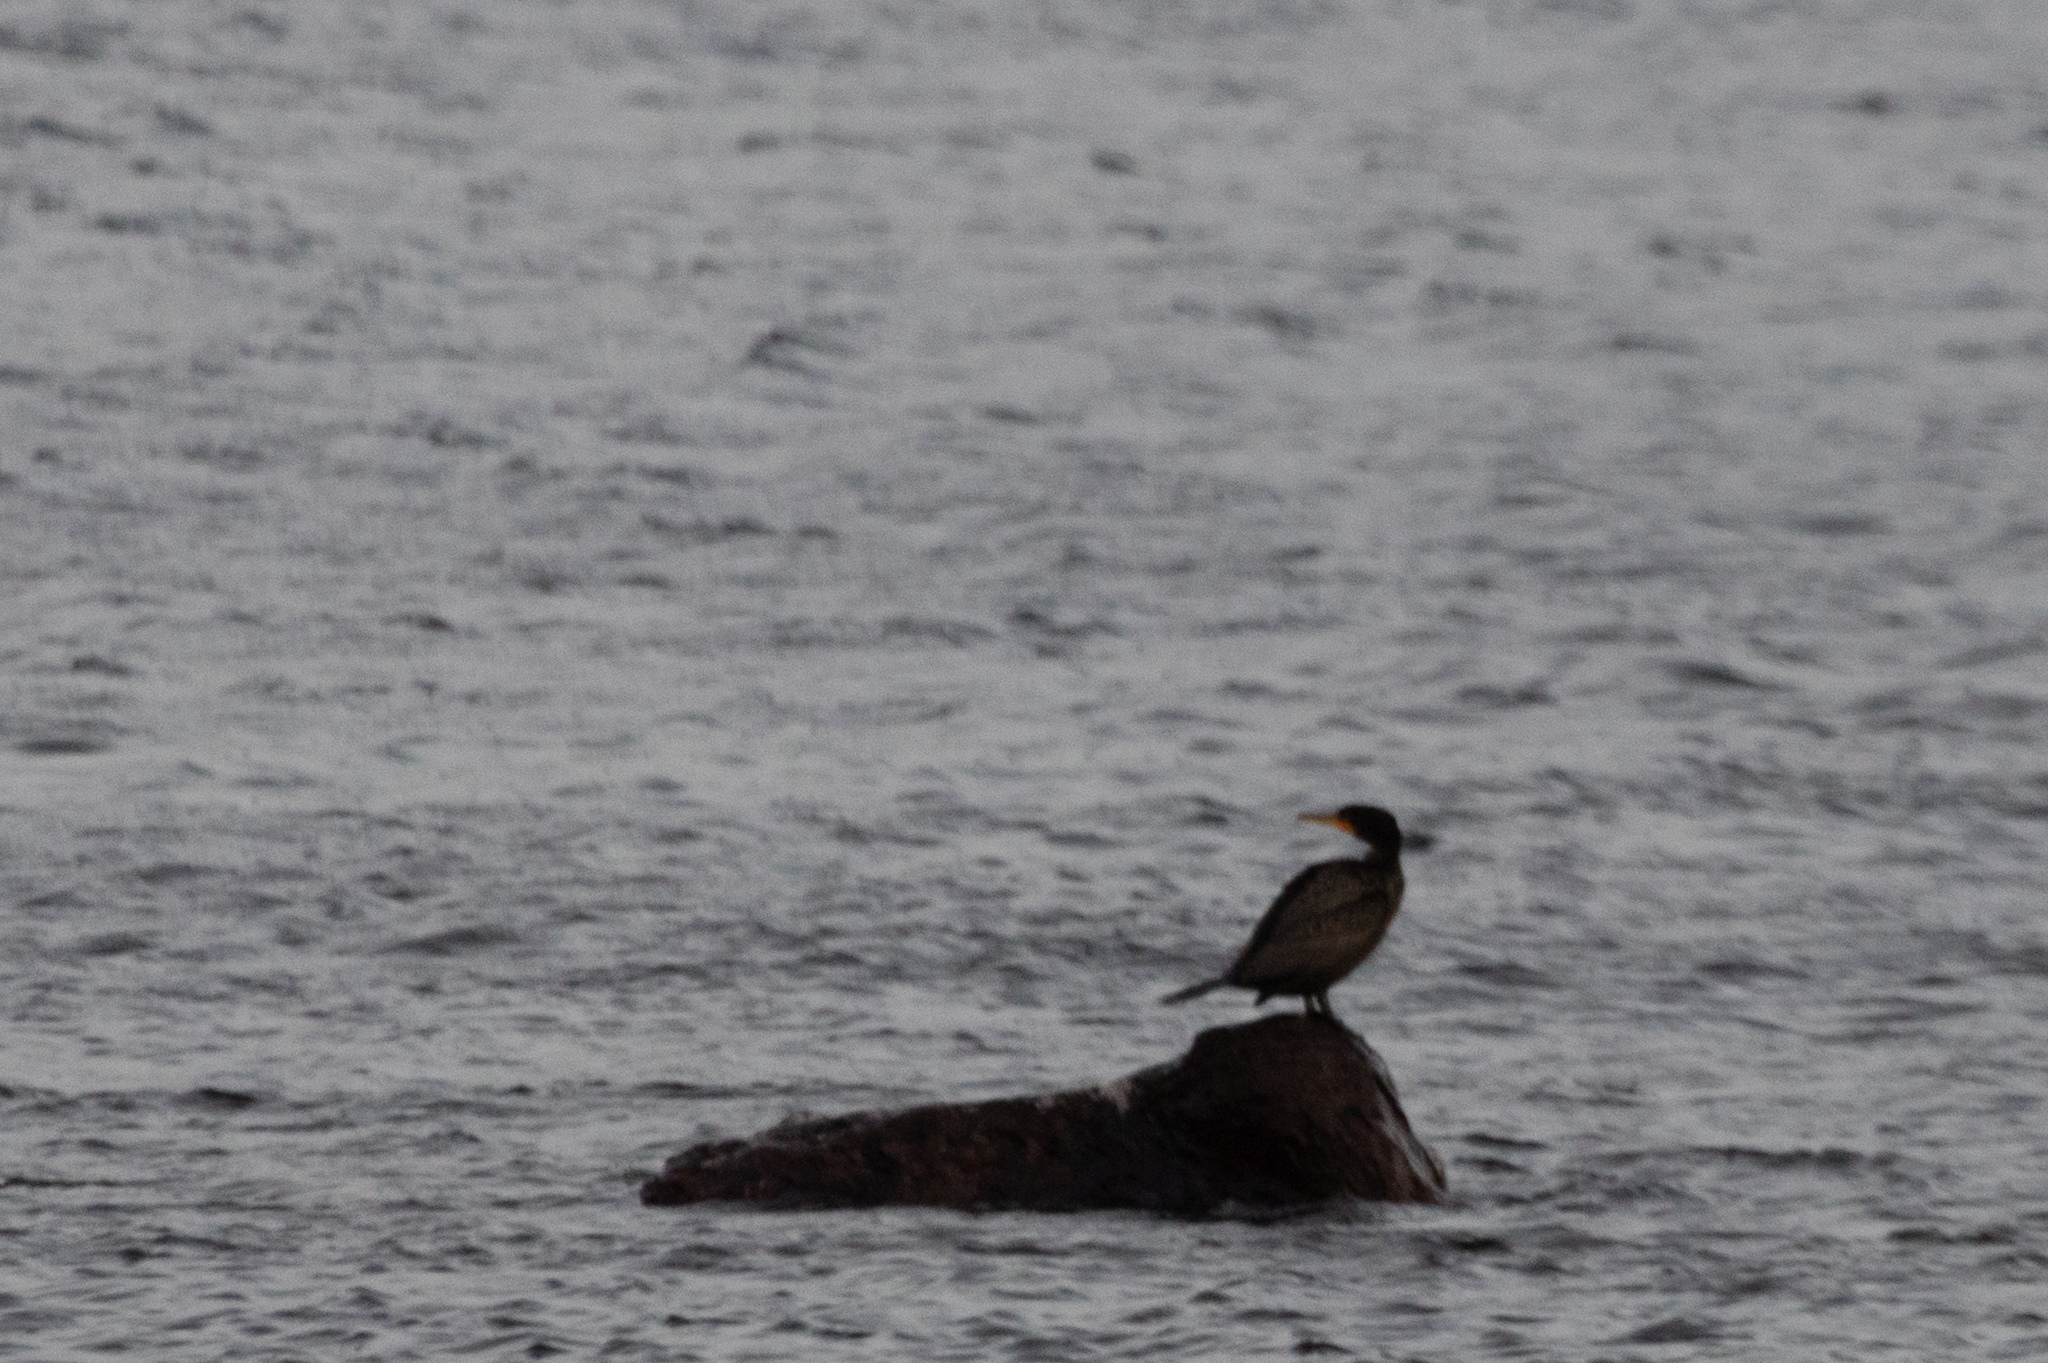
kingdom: Animalia
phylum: Chordata
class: Aves
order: Suliformes
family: Phalacrocoracidae
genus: Phalacrocorax
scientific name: Phalacrocorax auritus
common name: Double-crested cormorant
